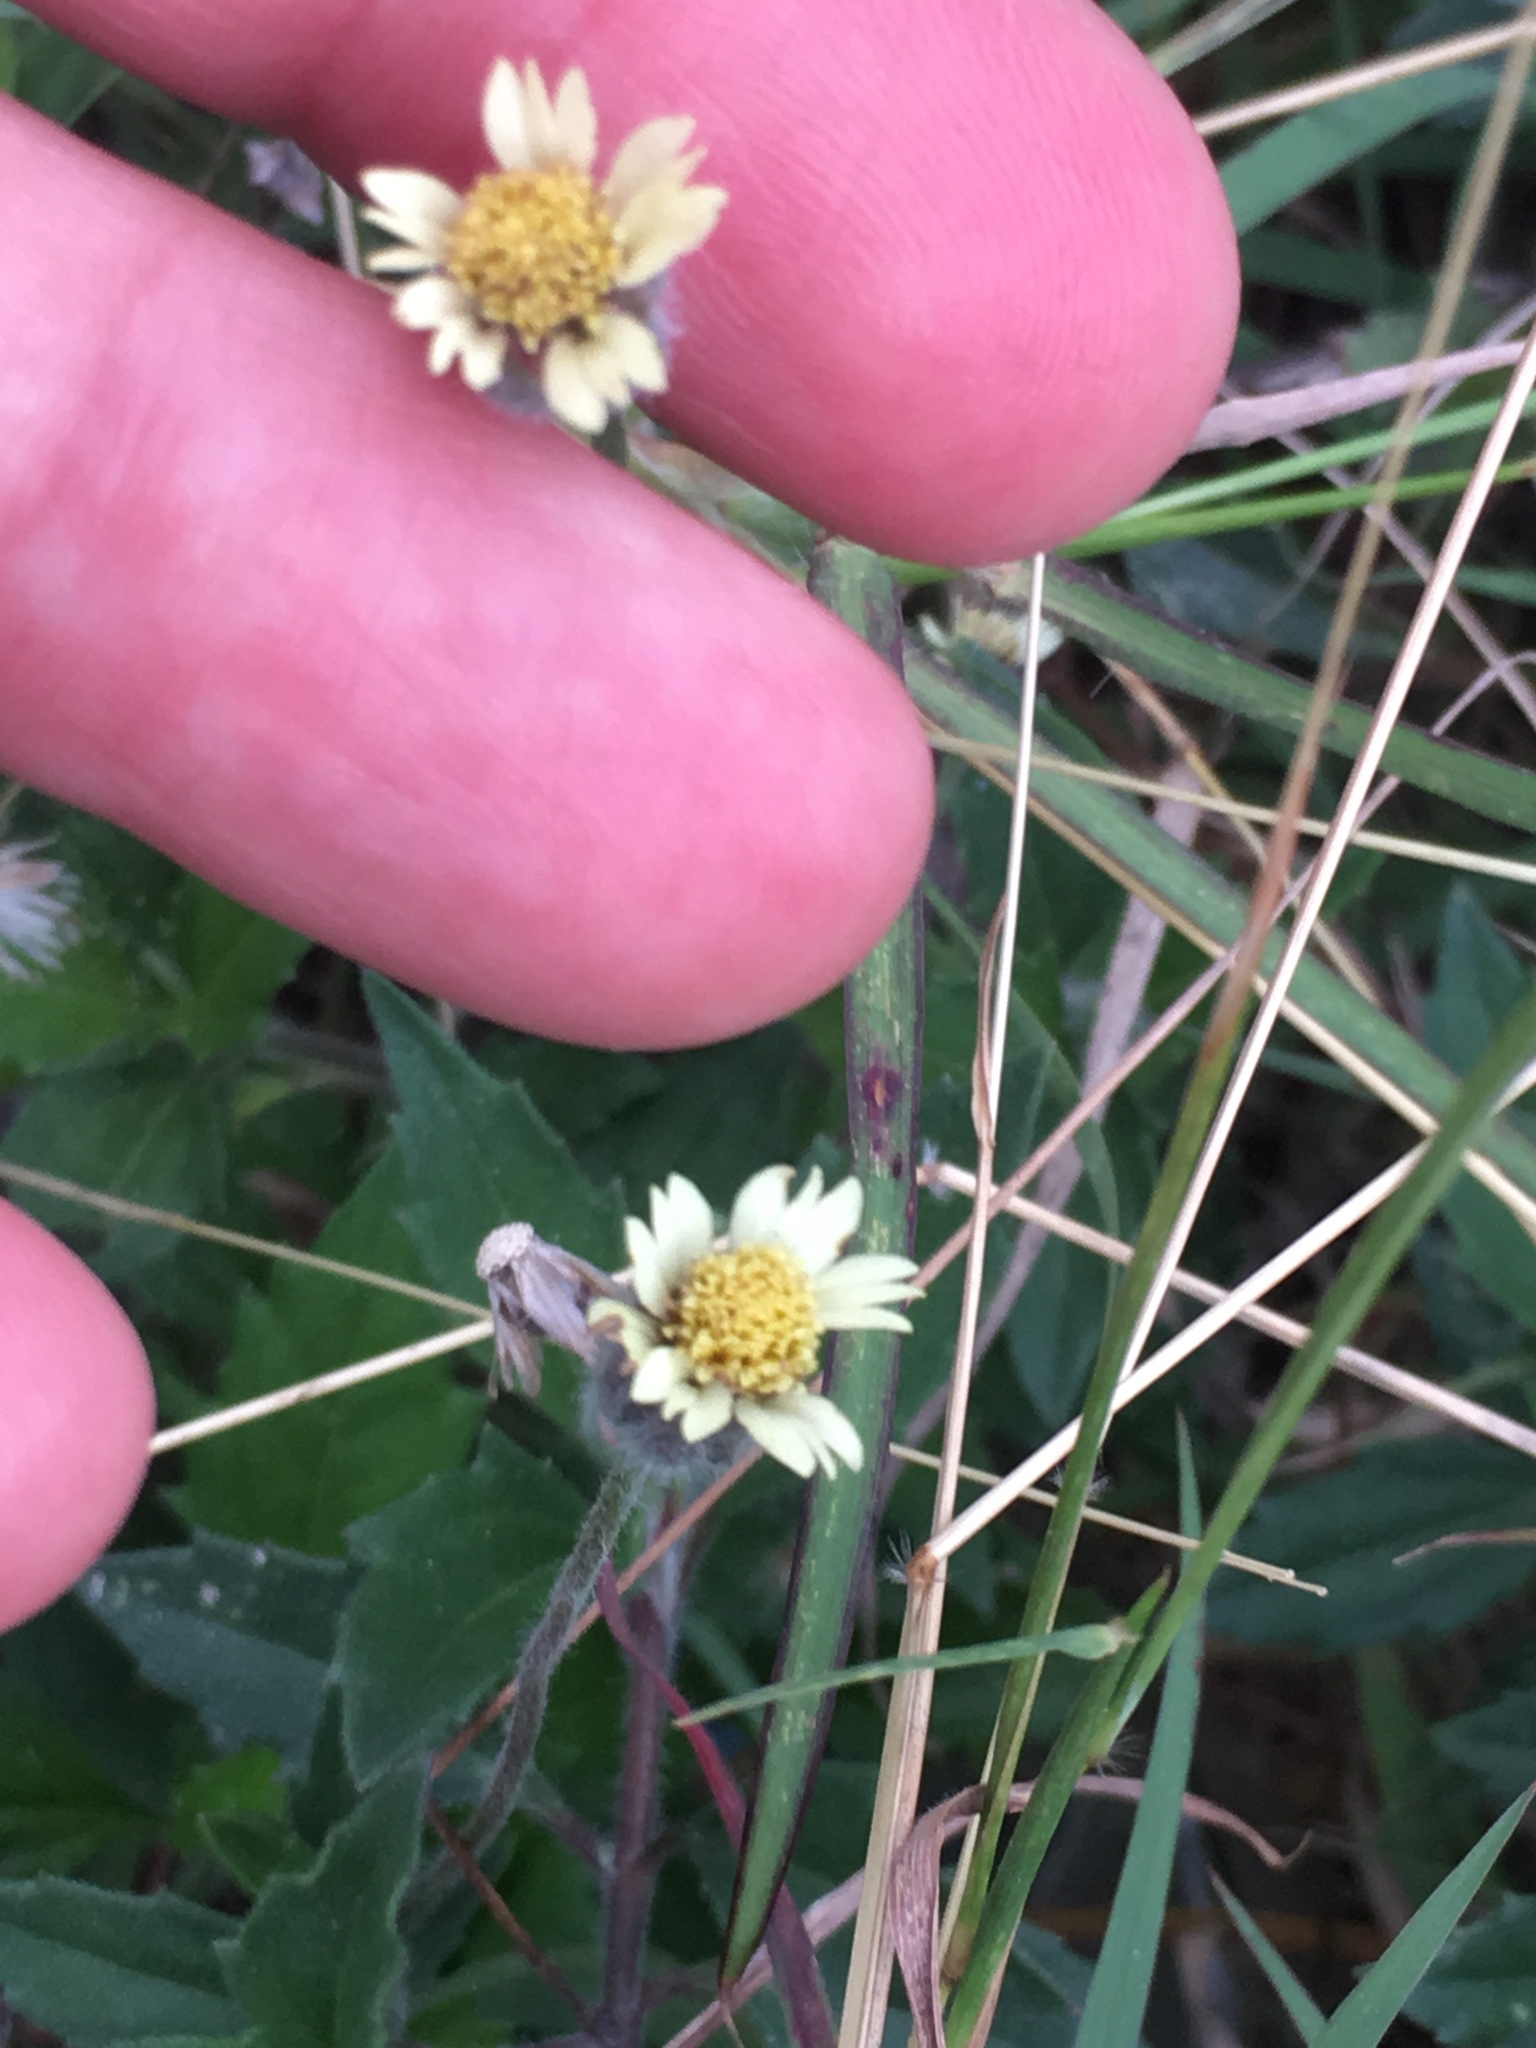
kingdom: Plantae
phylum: Tracheophyta
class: Magnoliopsida
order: Asterales
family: Asteraceae
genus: Tridax
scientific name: Tridax procumbens
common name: Coatbuttons
